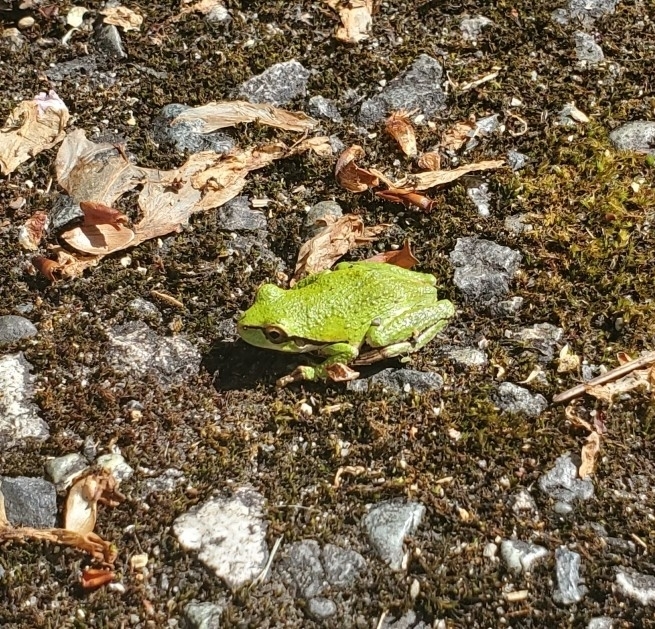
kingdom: Animalia
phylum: Chordata
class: Amphibia
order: Anura
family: Hylidae
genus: Pseudacris
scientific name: Pseudacris regilla
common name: Pacific chorus frog
